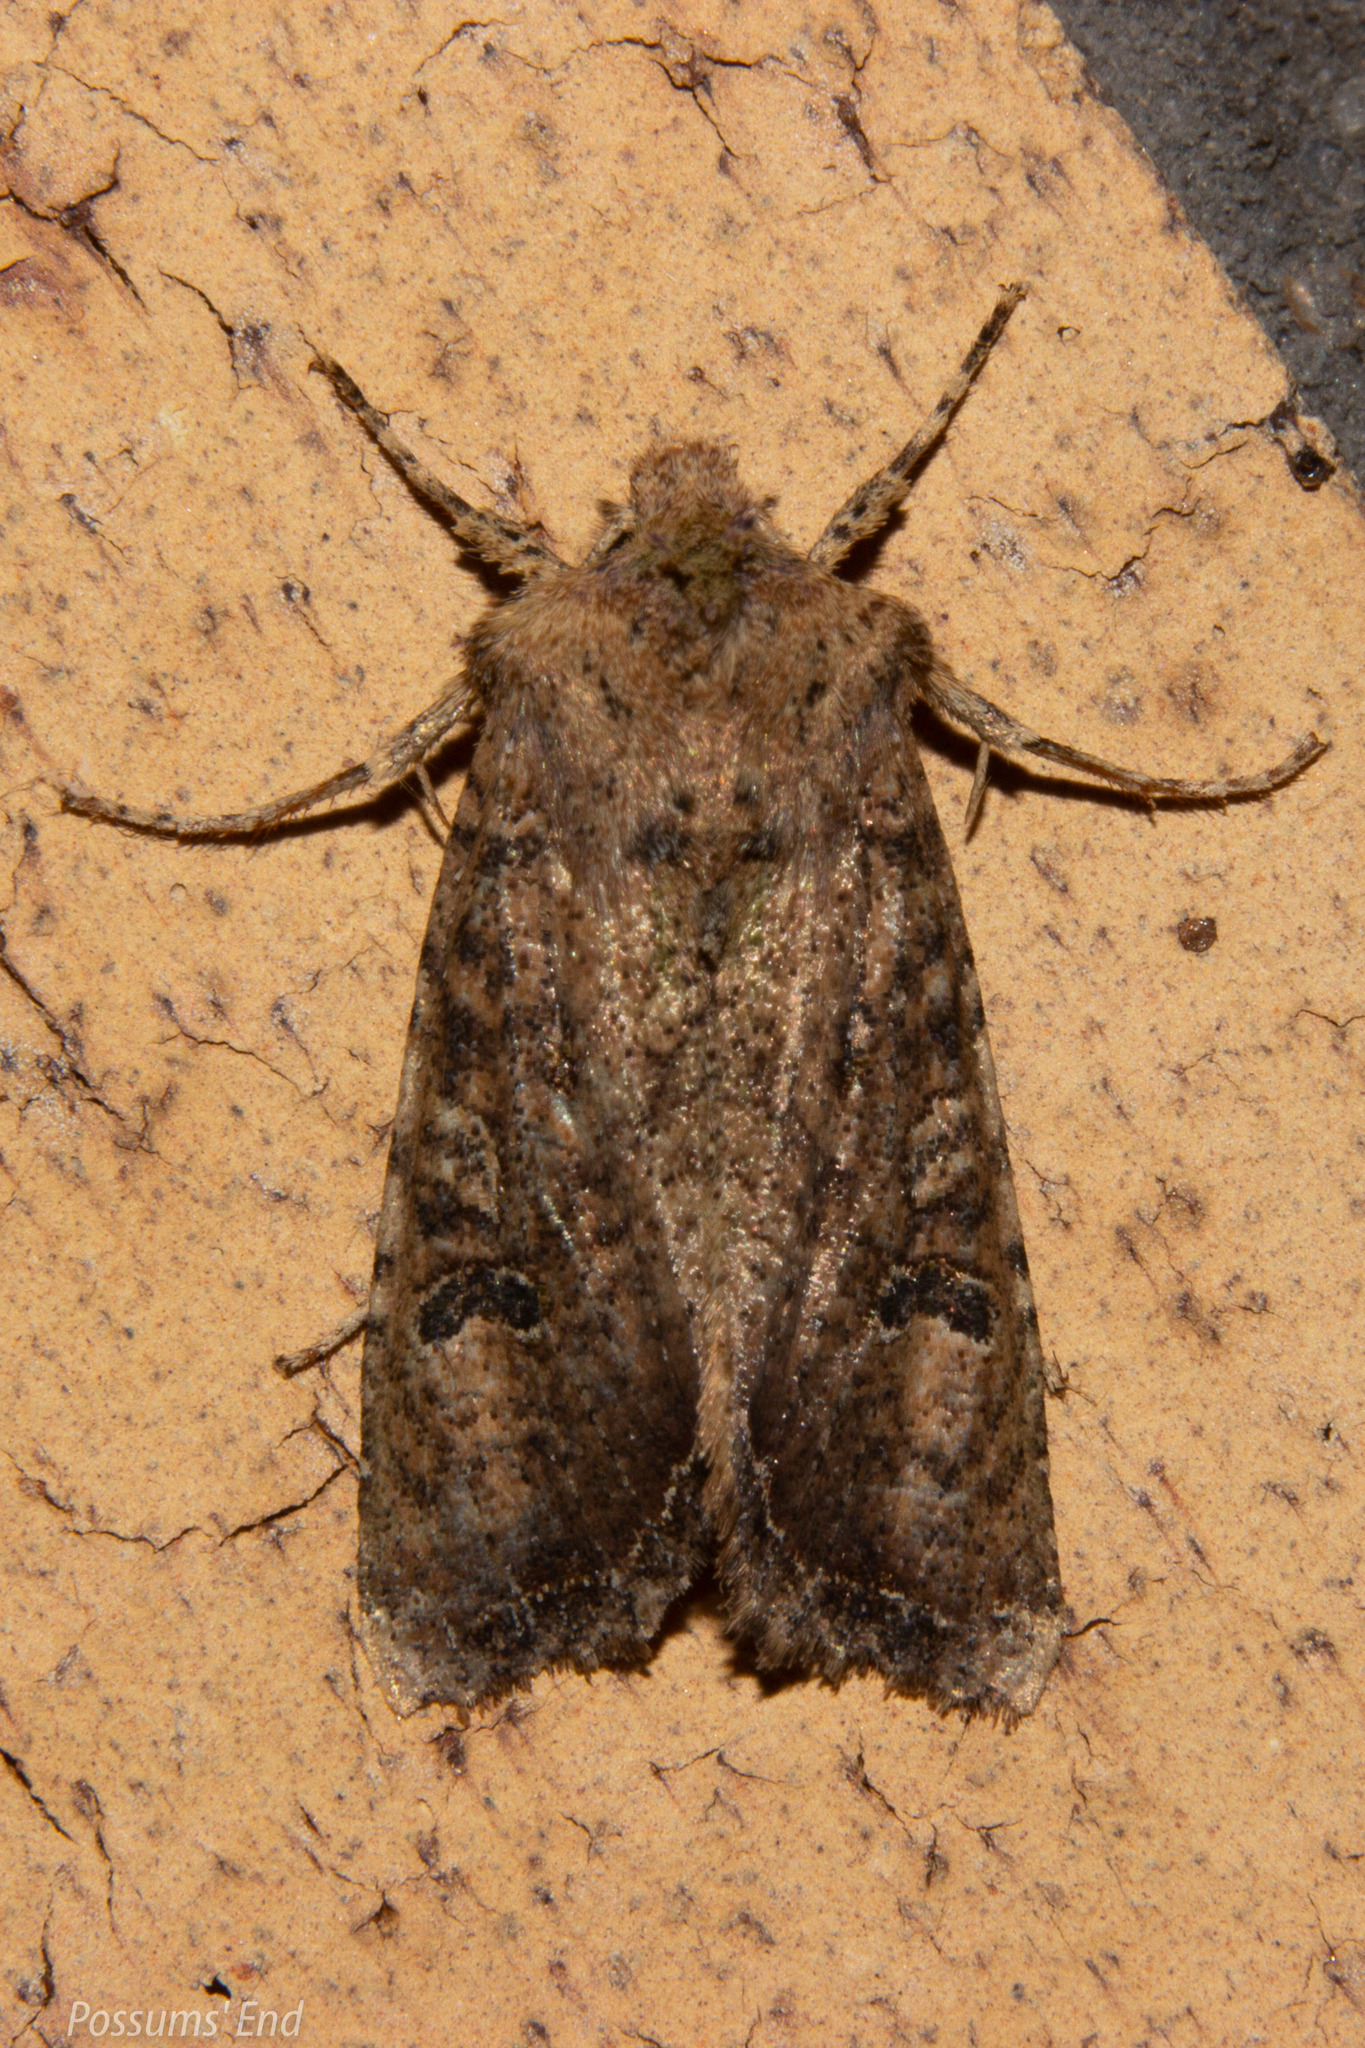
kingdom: Animalia
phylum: Arthropoda
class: Insecta
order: Lepidoptera
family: Noctuidae
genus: Meterana
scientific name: Meterana inchoata
